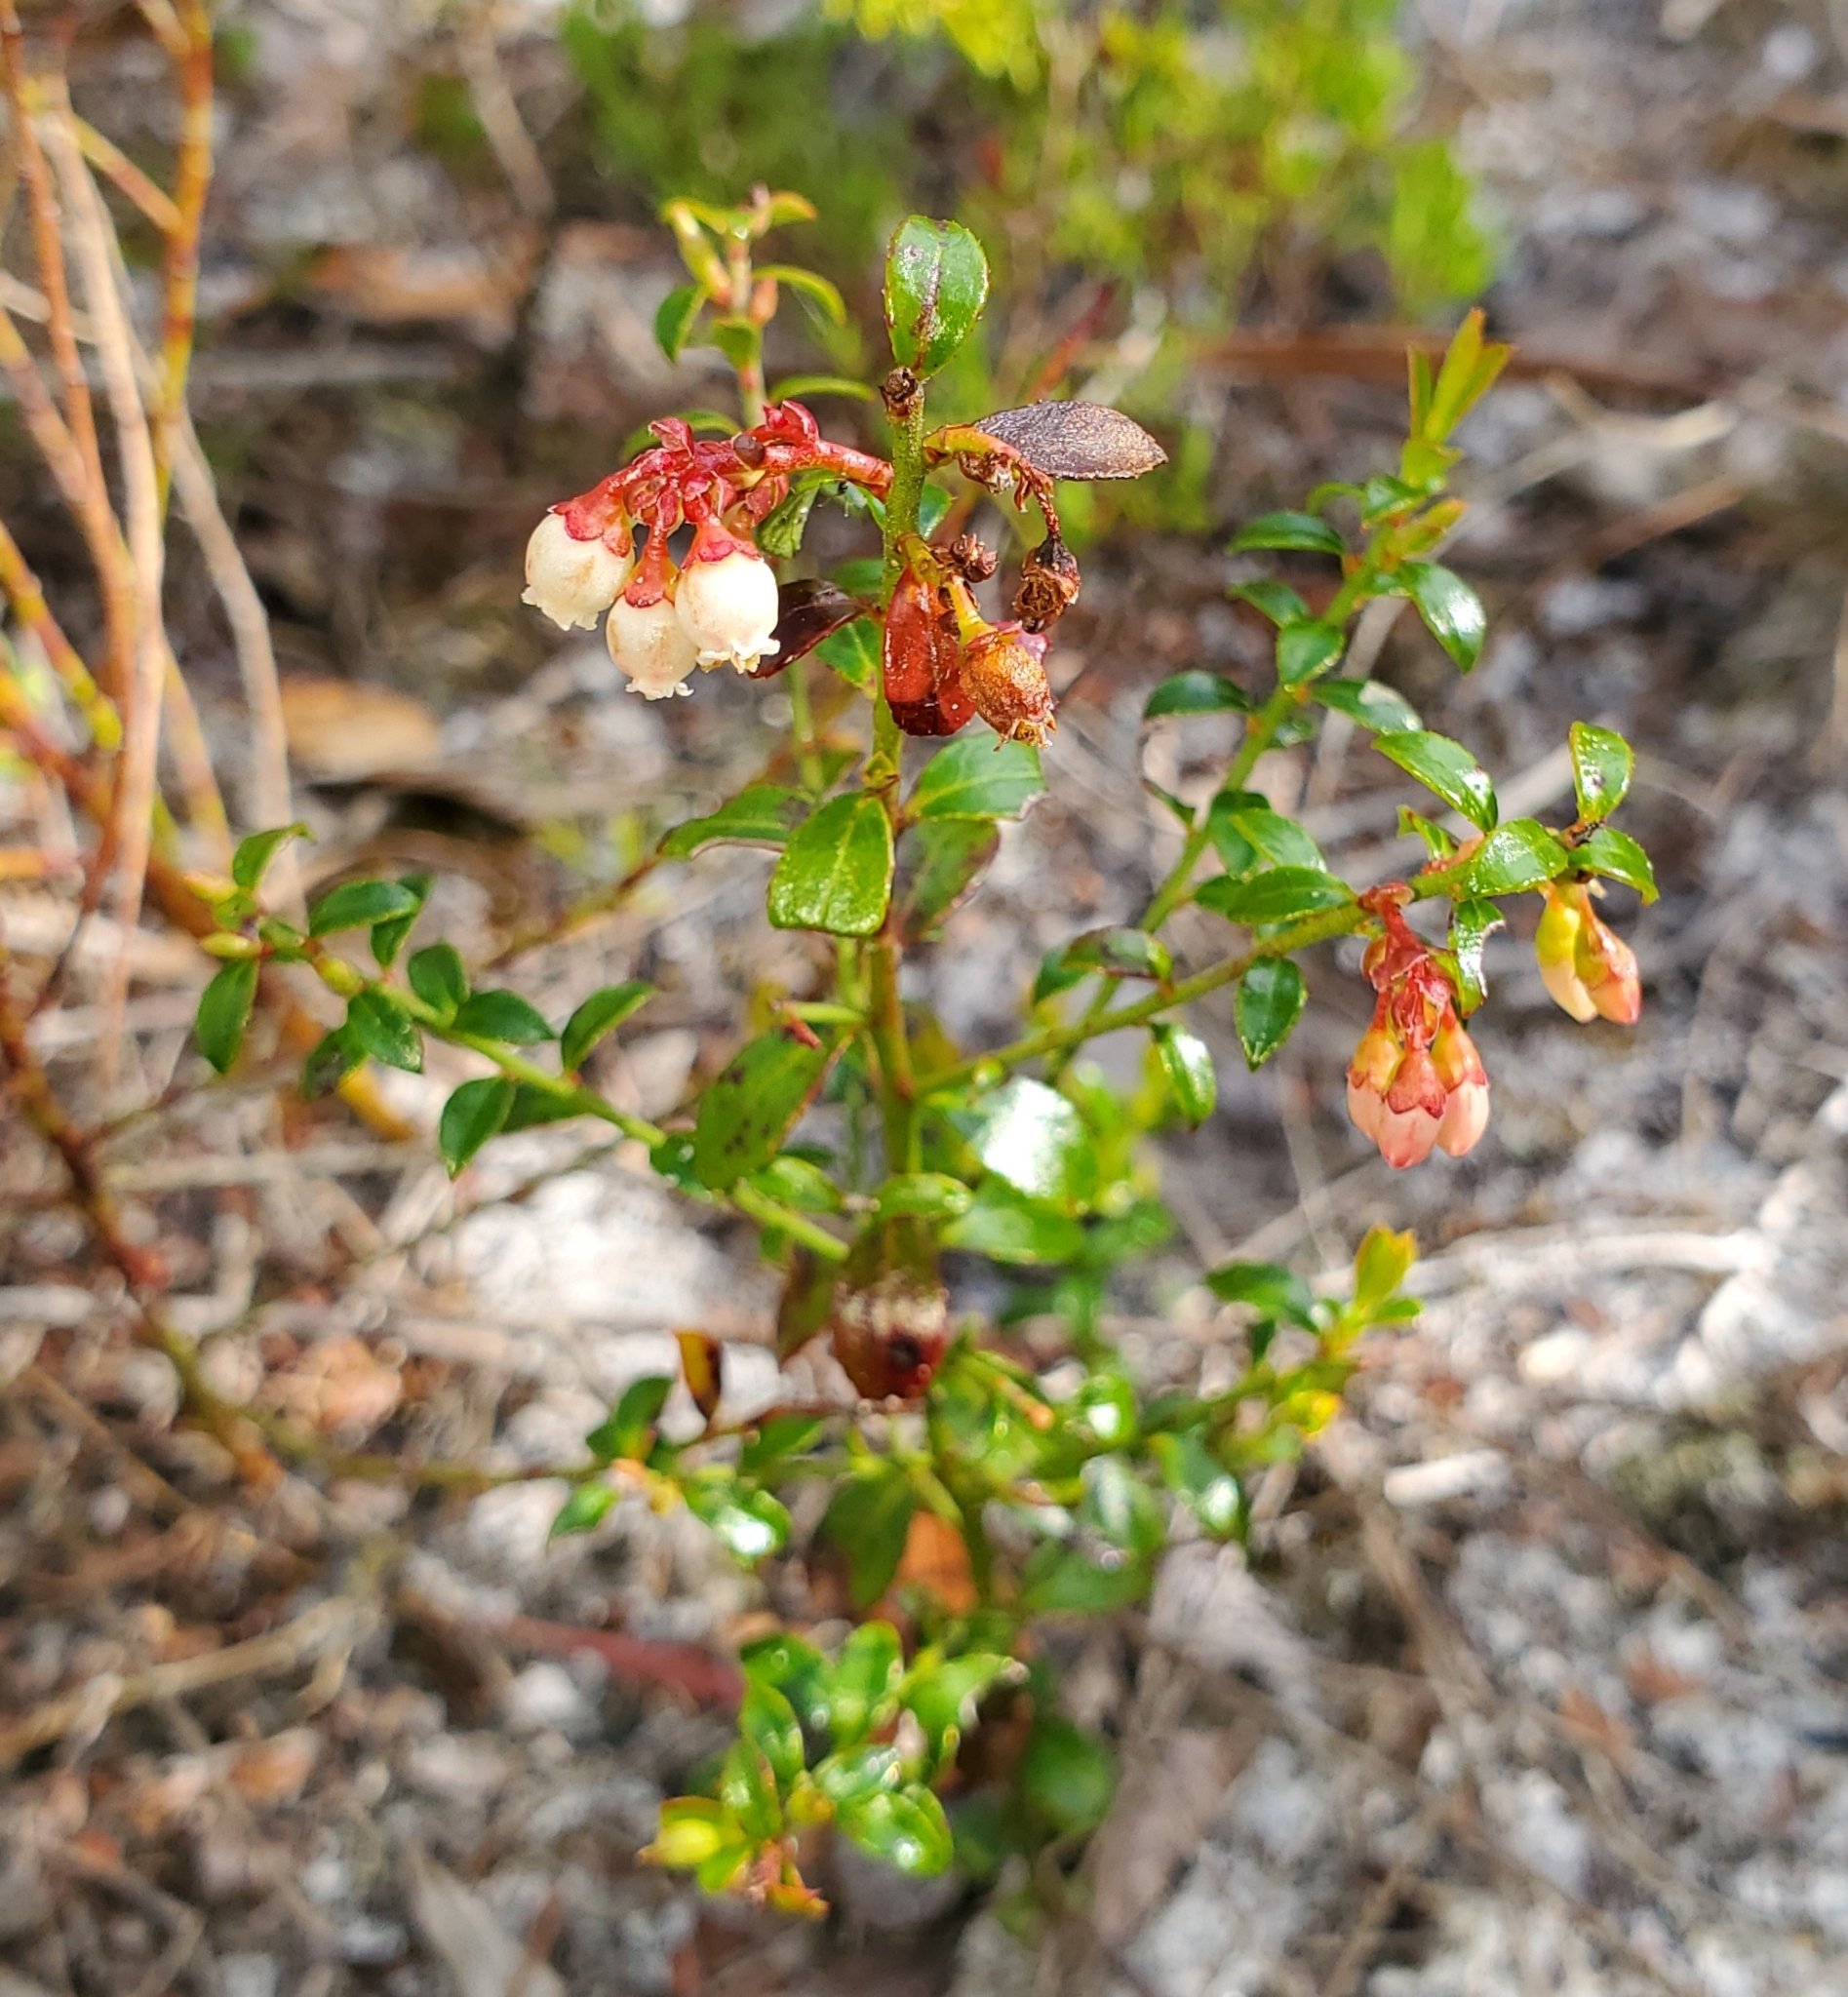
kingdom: Plantae
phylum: Tracheophyta
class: Magnoliopsida
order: Ericales
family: Ericaceae
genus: Vaccinium
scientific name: Vaccinium myrsinites
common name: Evergreen blueberry
